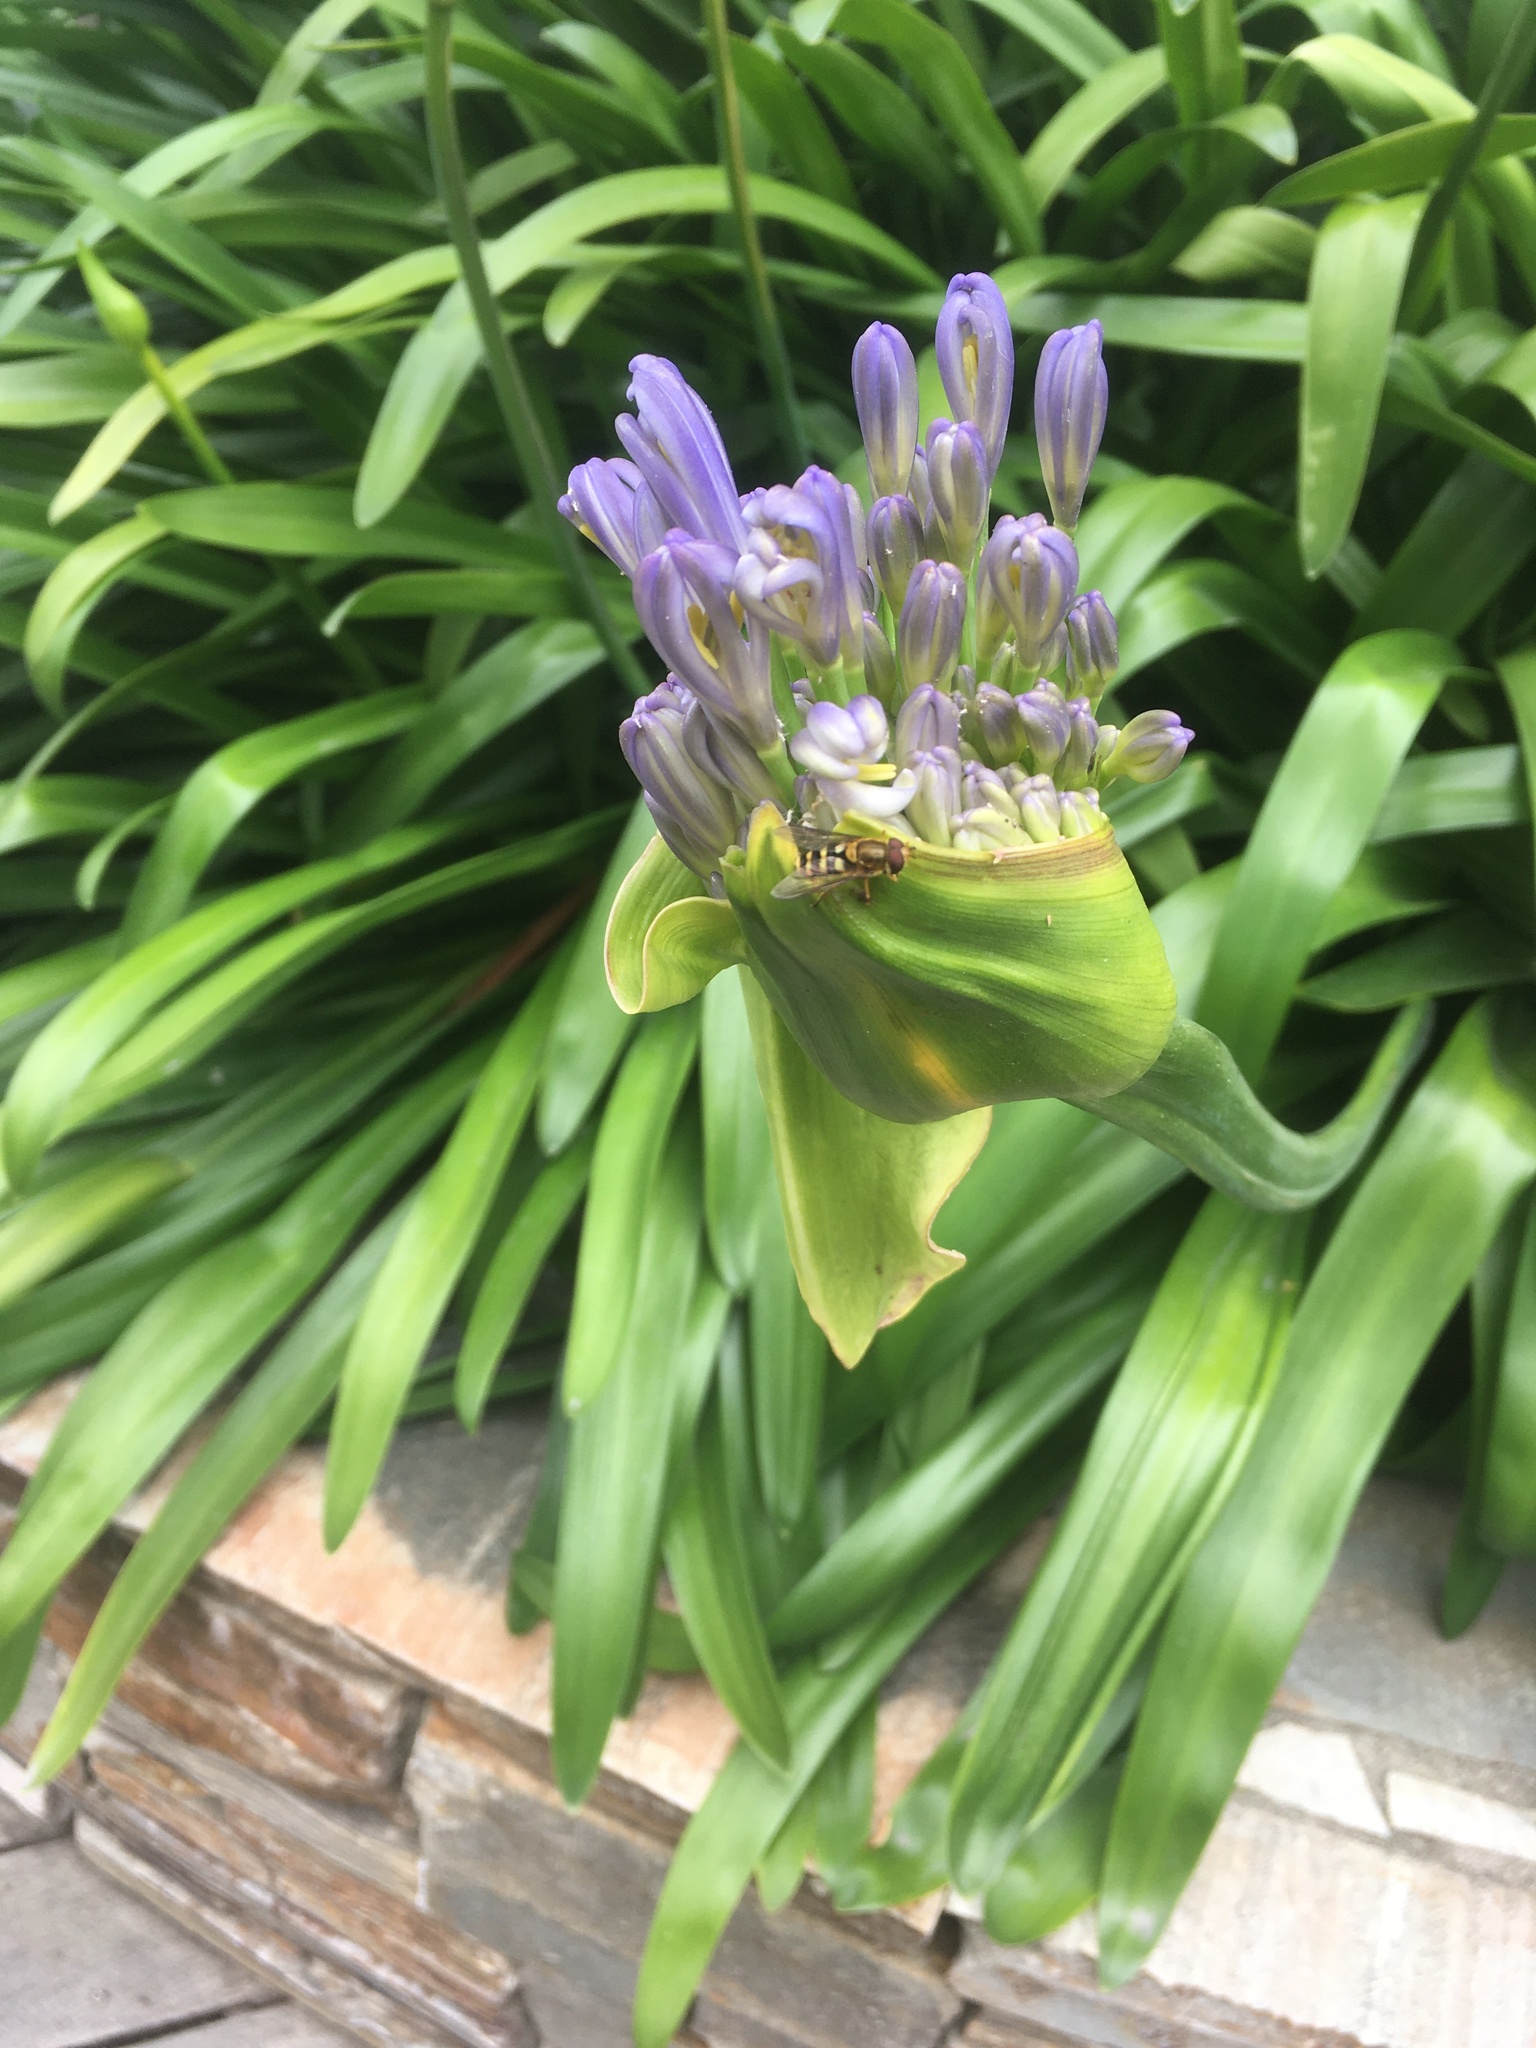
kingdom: Animalia
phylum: Arthropoda
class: Insecta
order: Diptera
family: Syrphidae
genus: Syrphus
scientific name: Syrphus opinator
